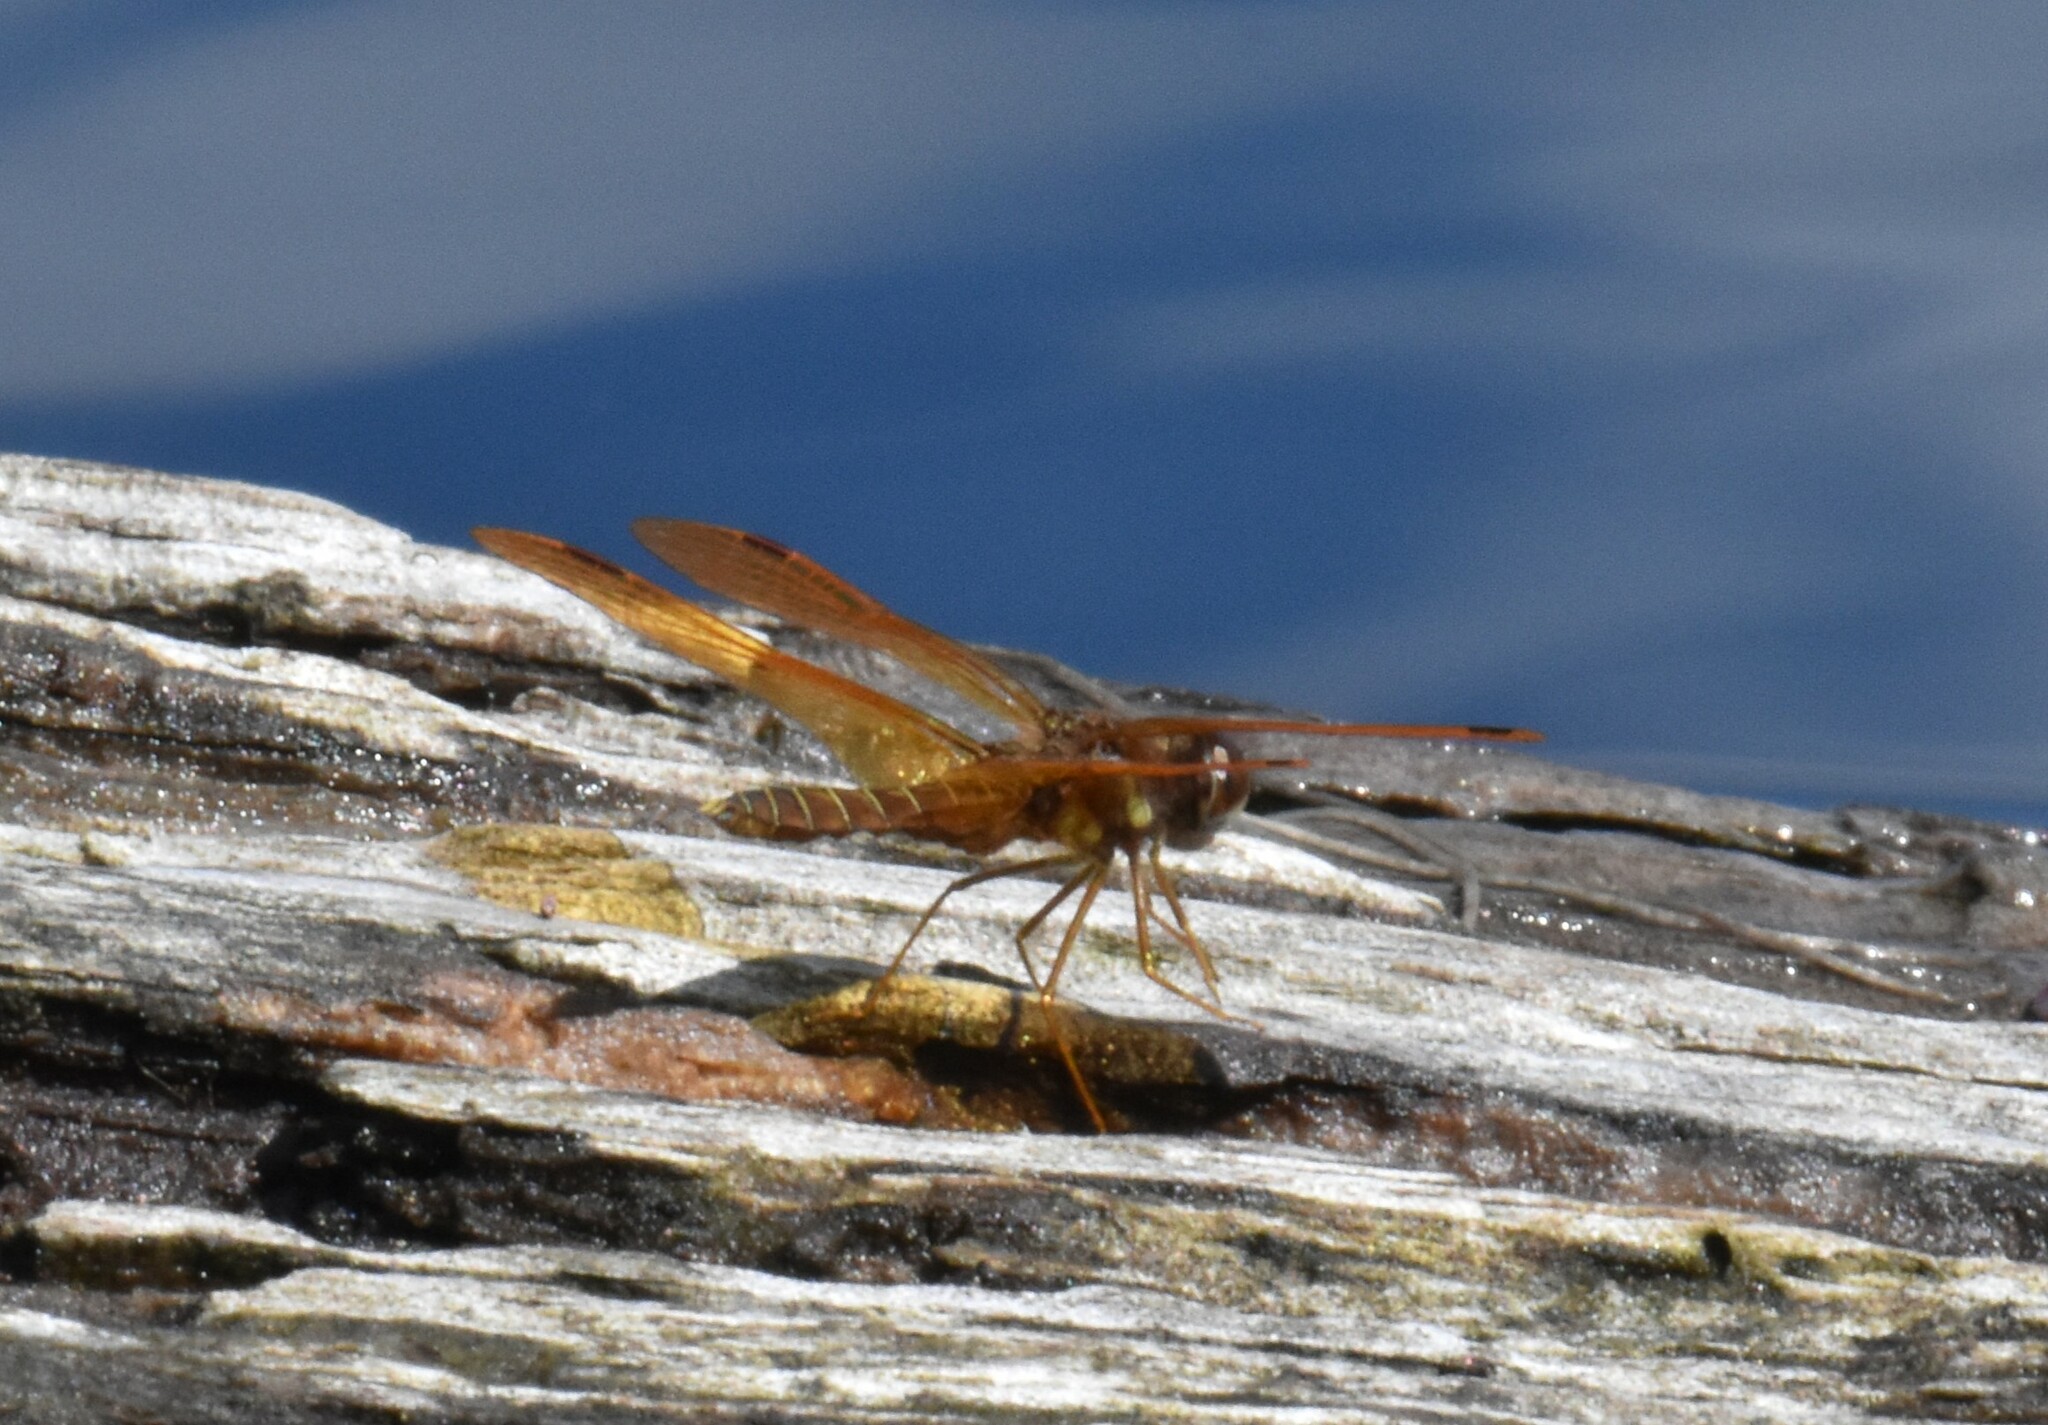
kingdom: Animalia
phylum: Arthropoda
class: Insecta
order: Odonata
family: Libellulidae
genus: Perithemis
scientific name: Perithemis tenera
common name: Eastern amberwing
